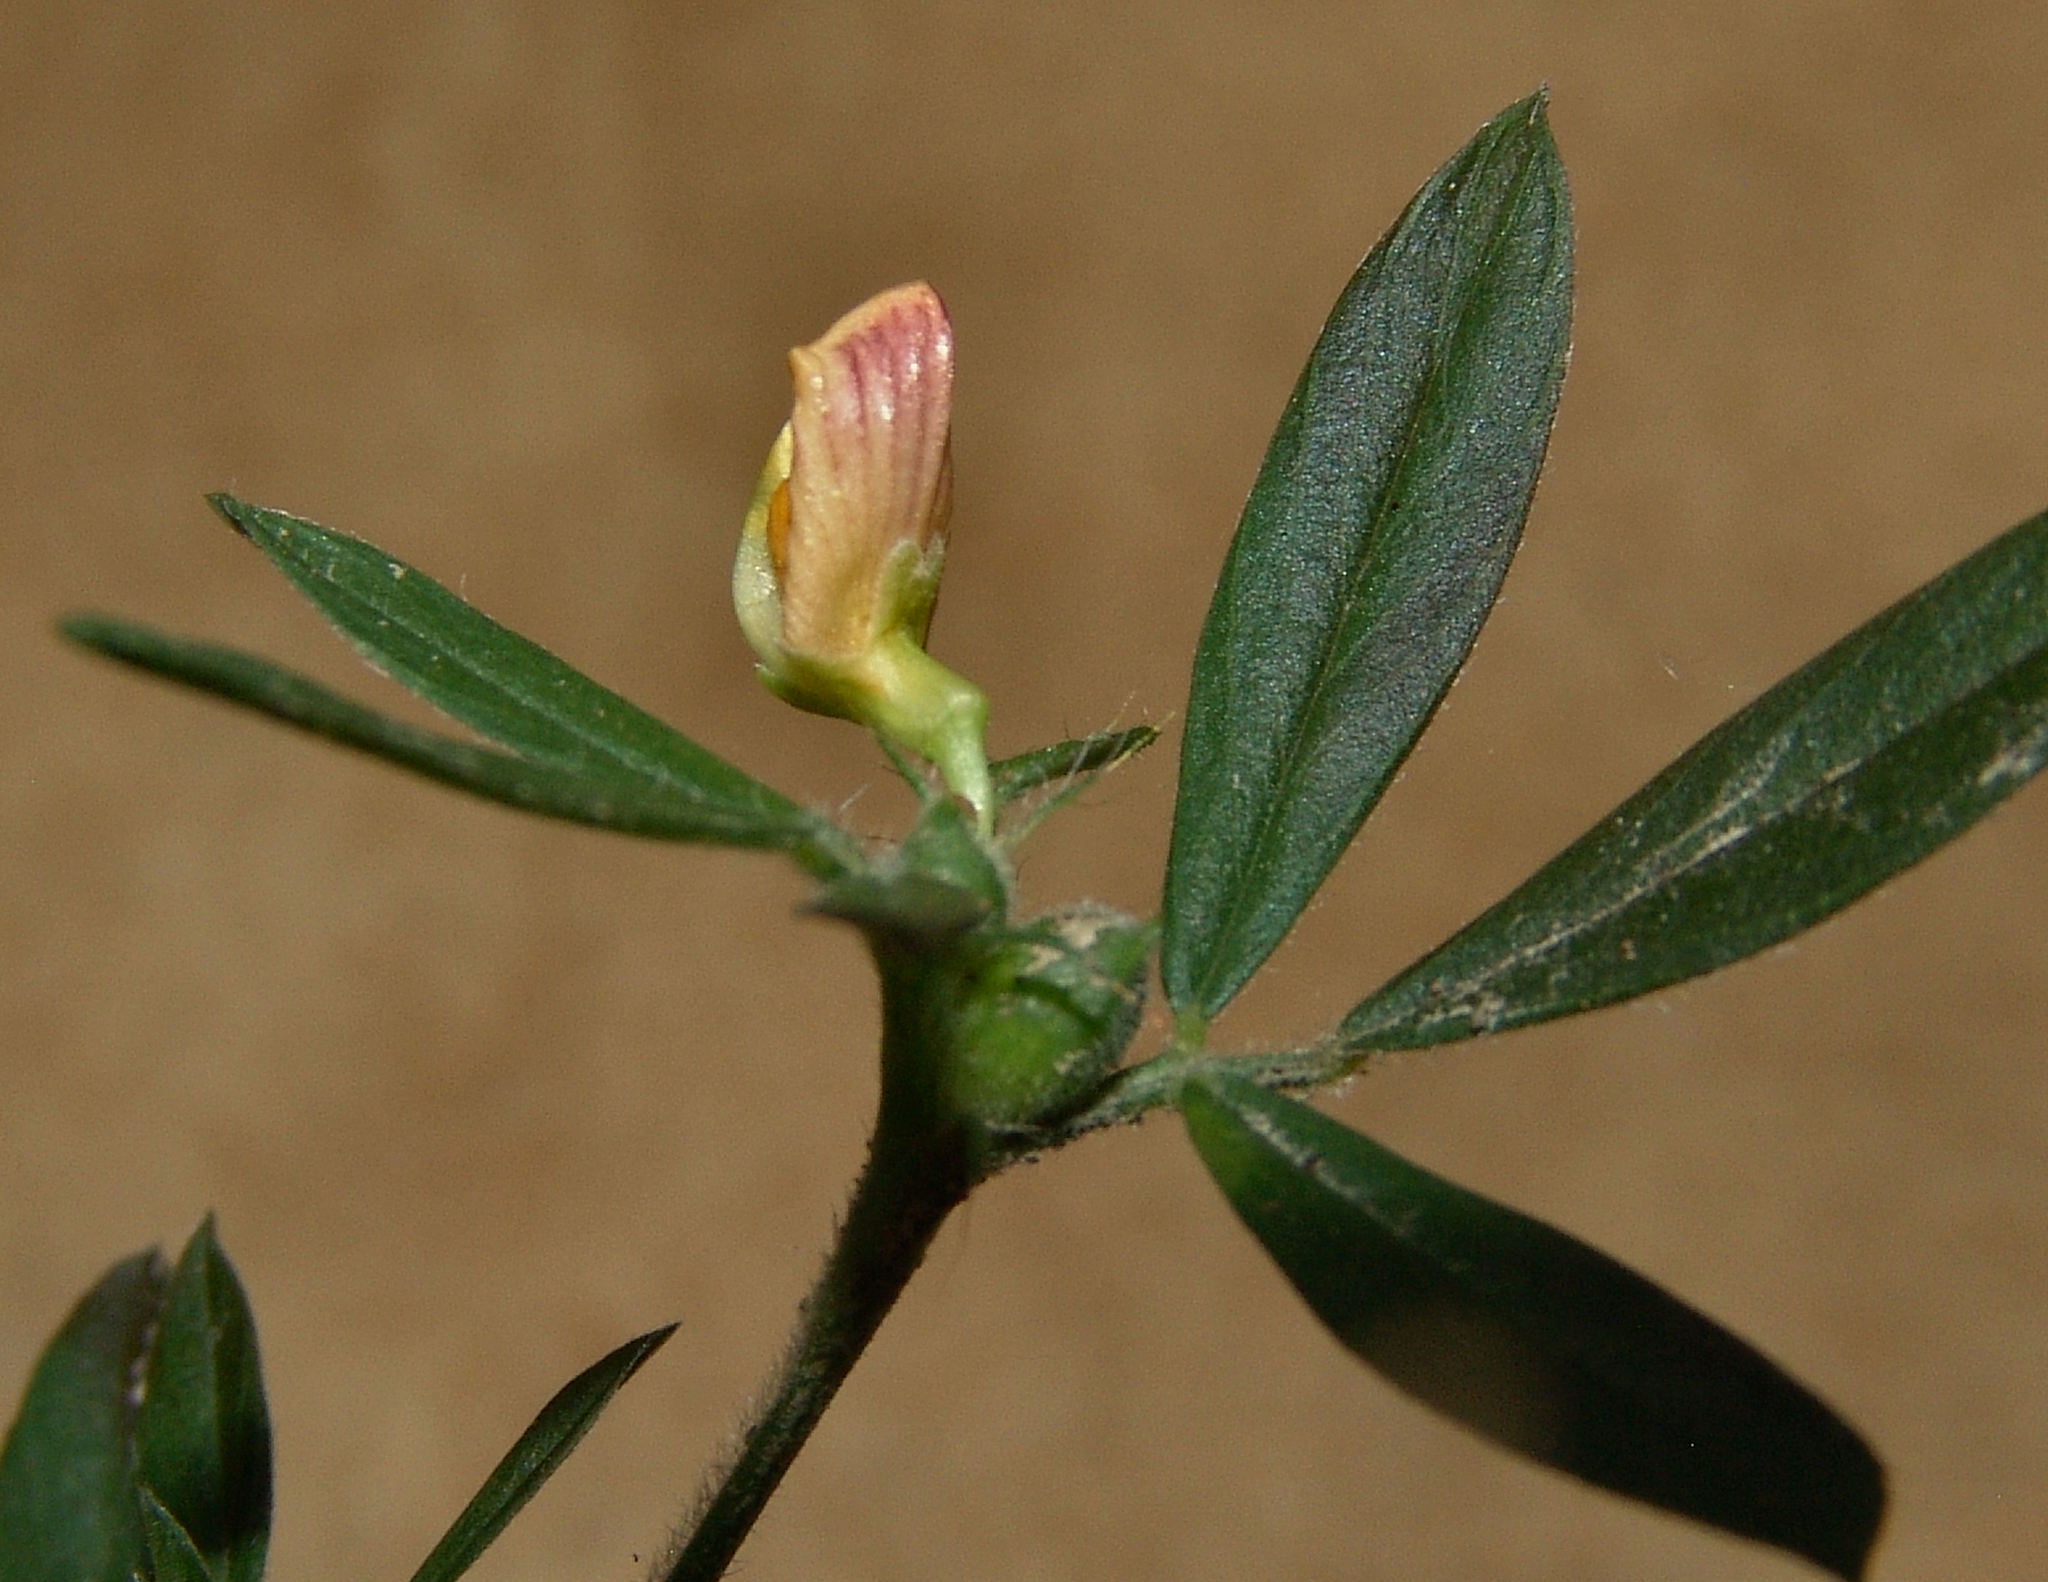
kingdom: Plantae
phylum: Tracheophyta
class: Magnoliopsida
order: Fabales
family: Fabaceae
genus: Stylosanthes
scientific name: Stylosanthes biflora
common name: Two-flower pencil-flower
